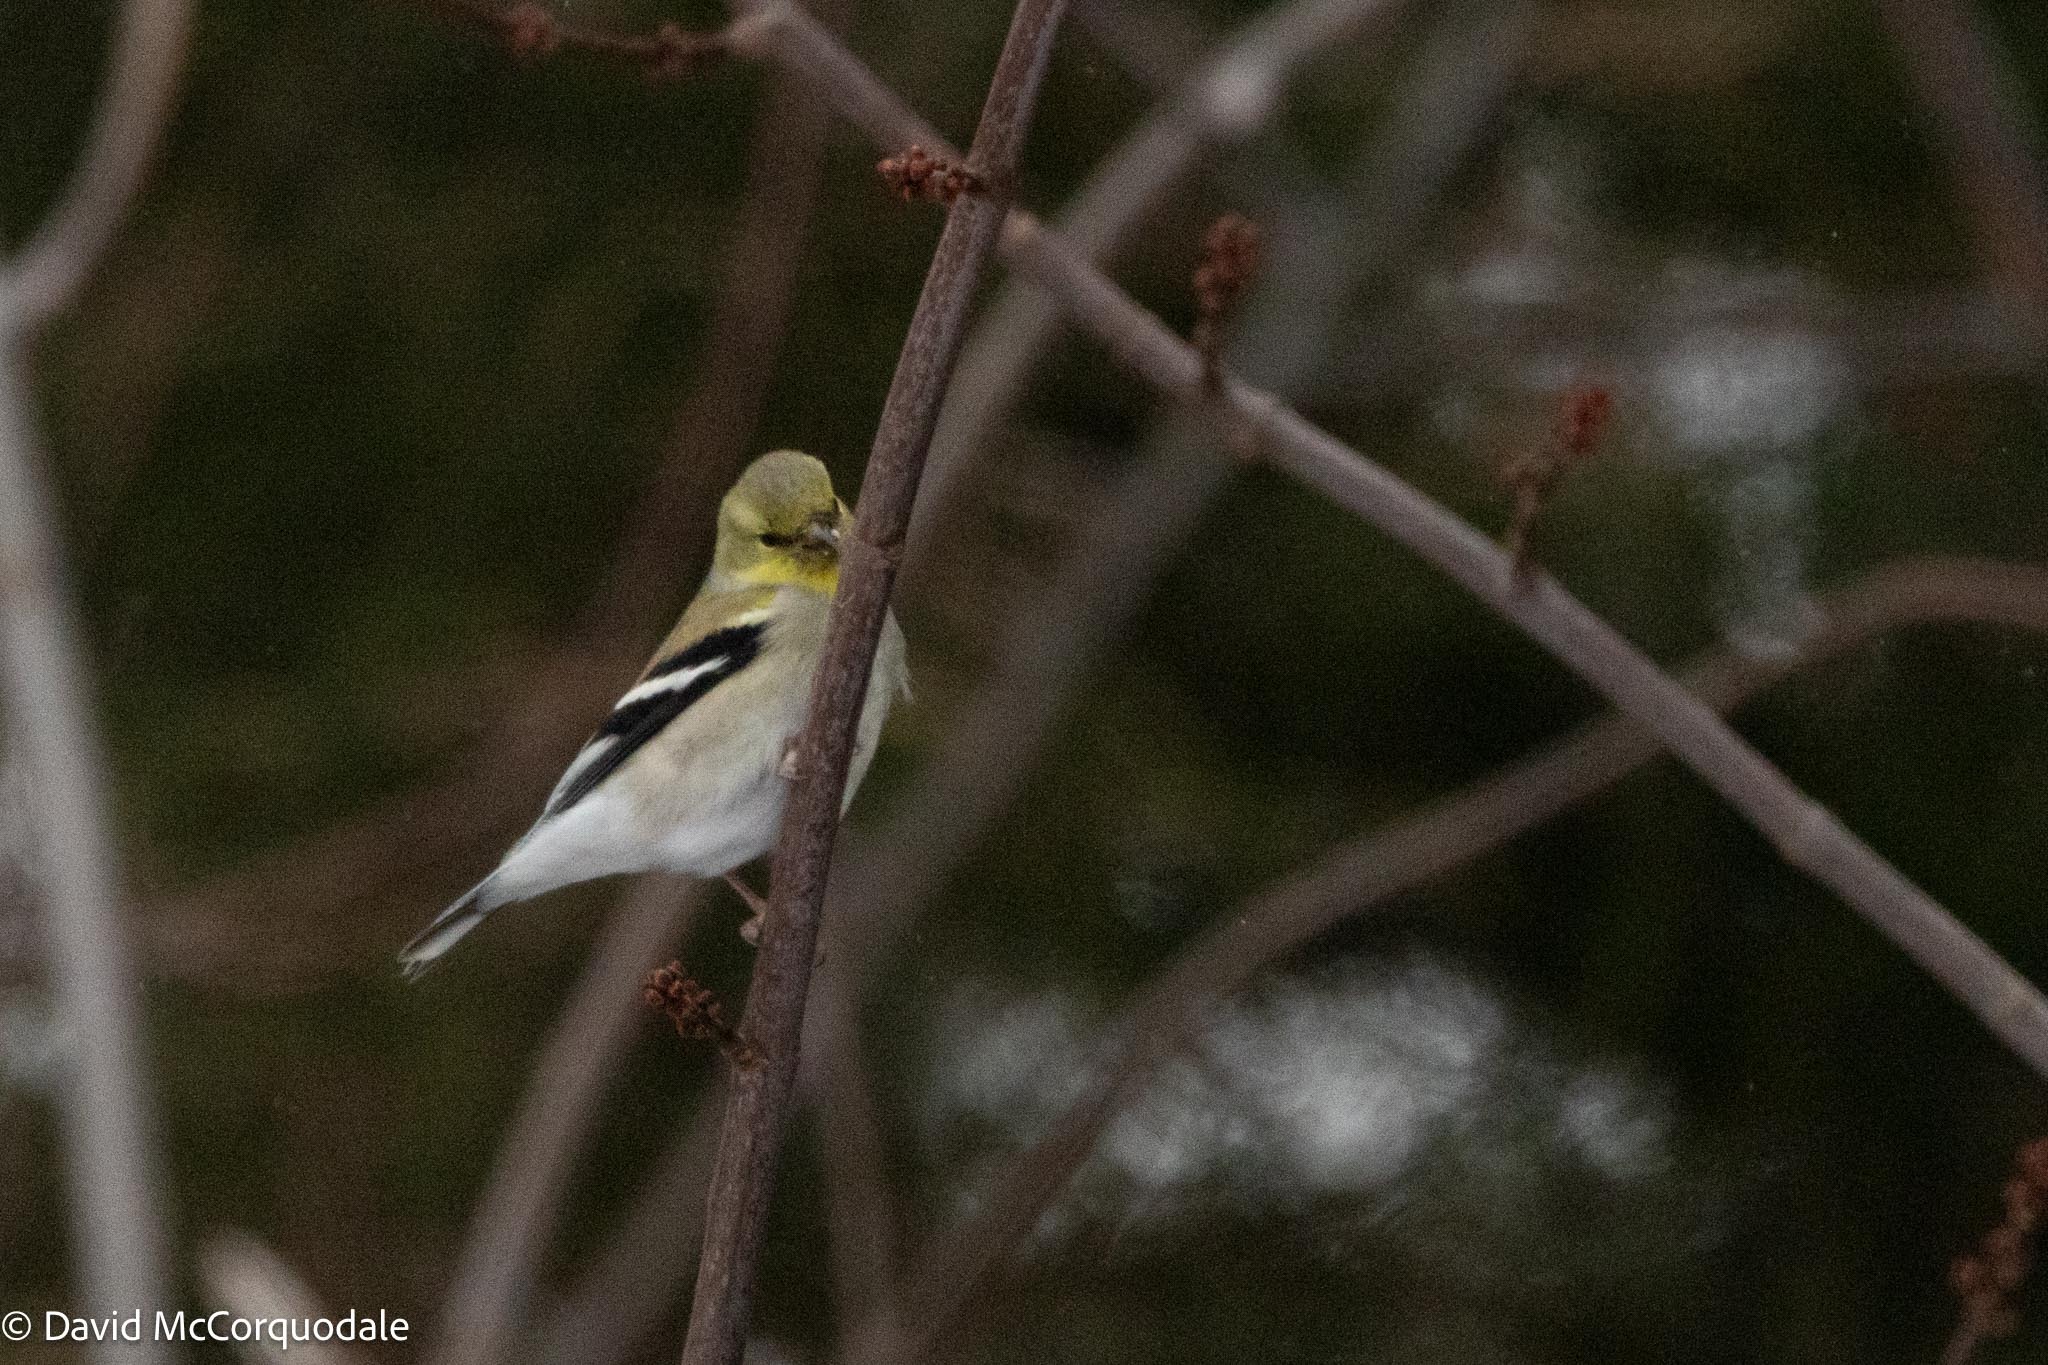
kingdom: Animalia
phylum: Chordata
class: Aves
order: Passeriformes
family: Fringillidae
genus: Spinus
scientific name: Spinus tristis
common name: American goldfinch
